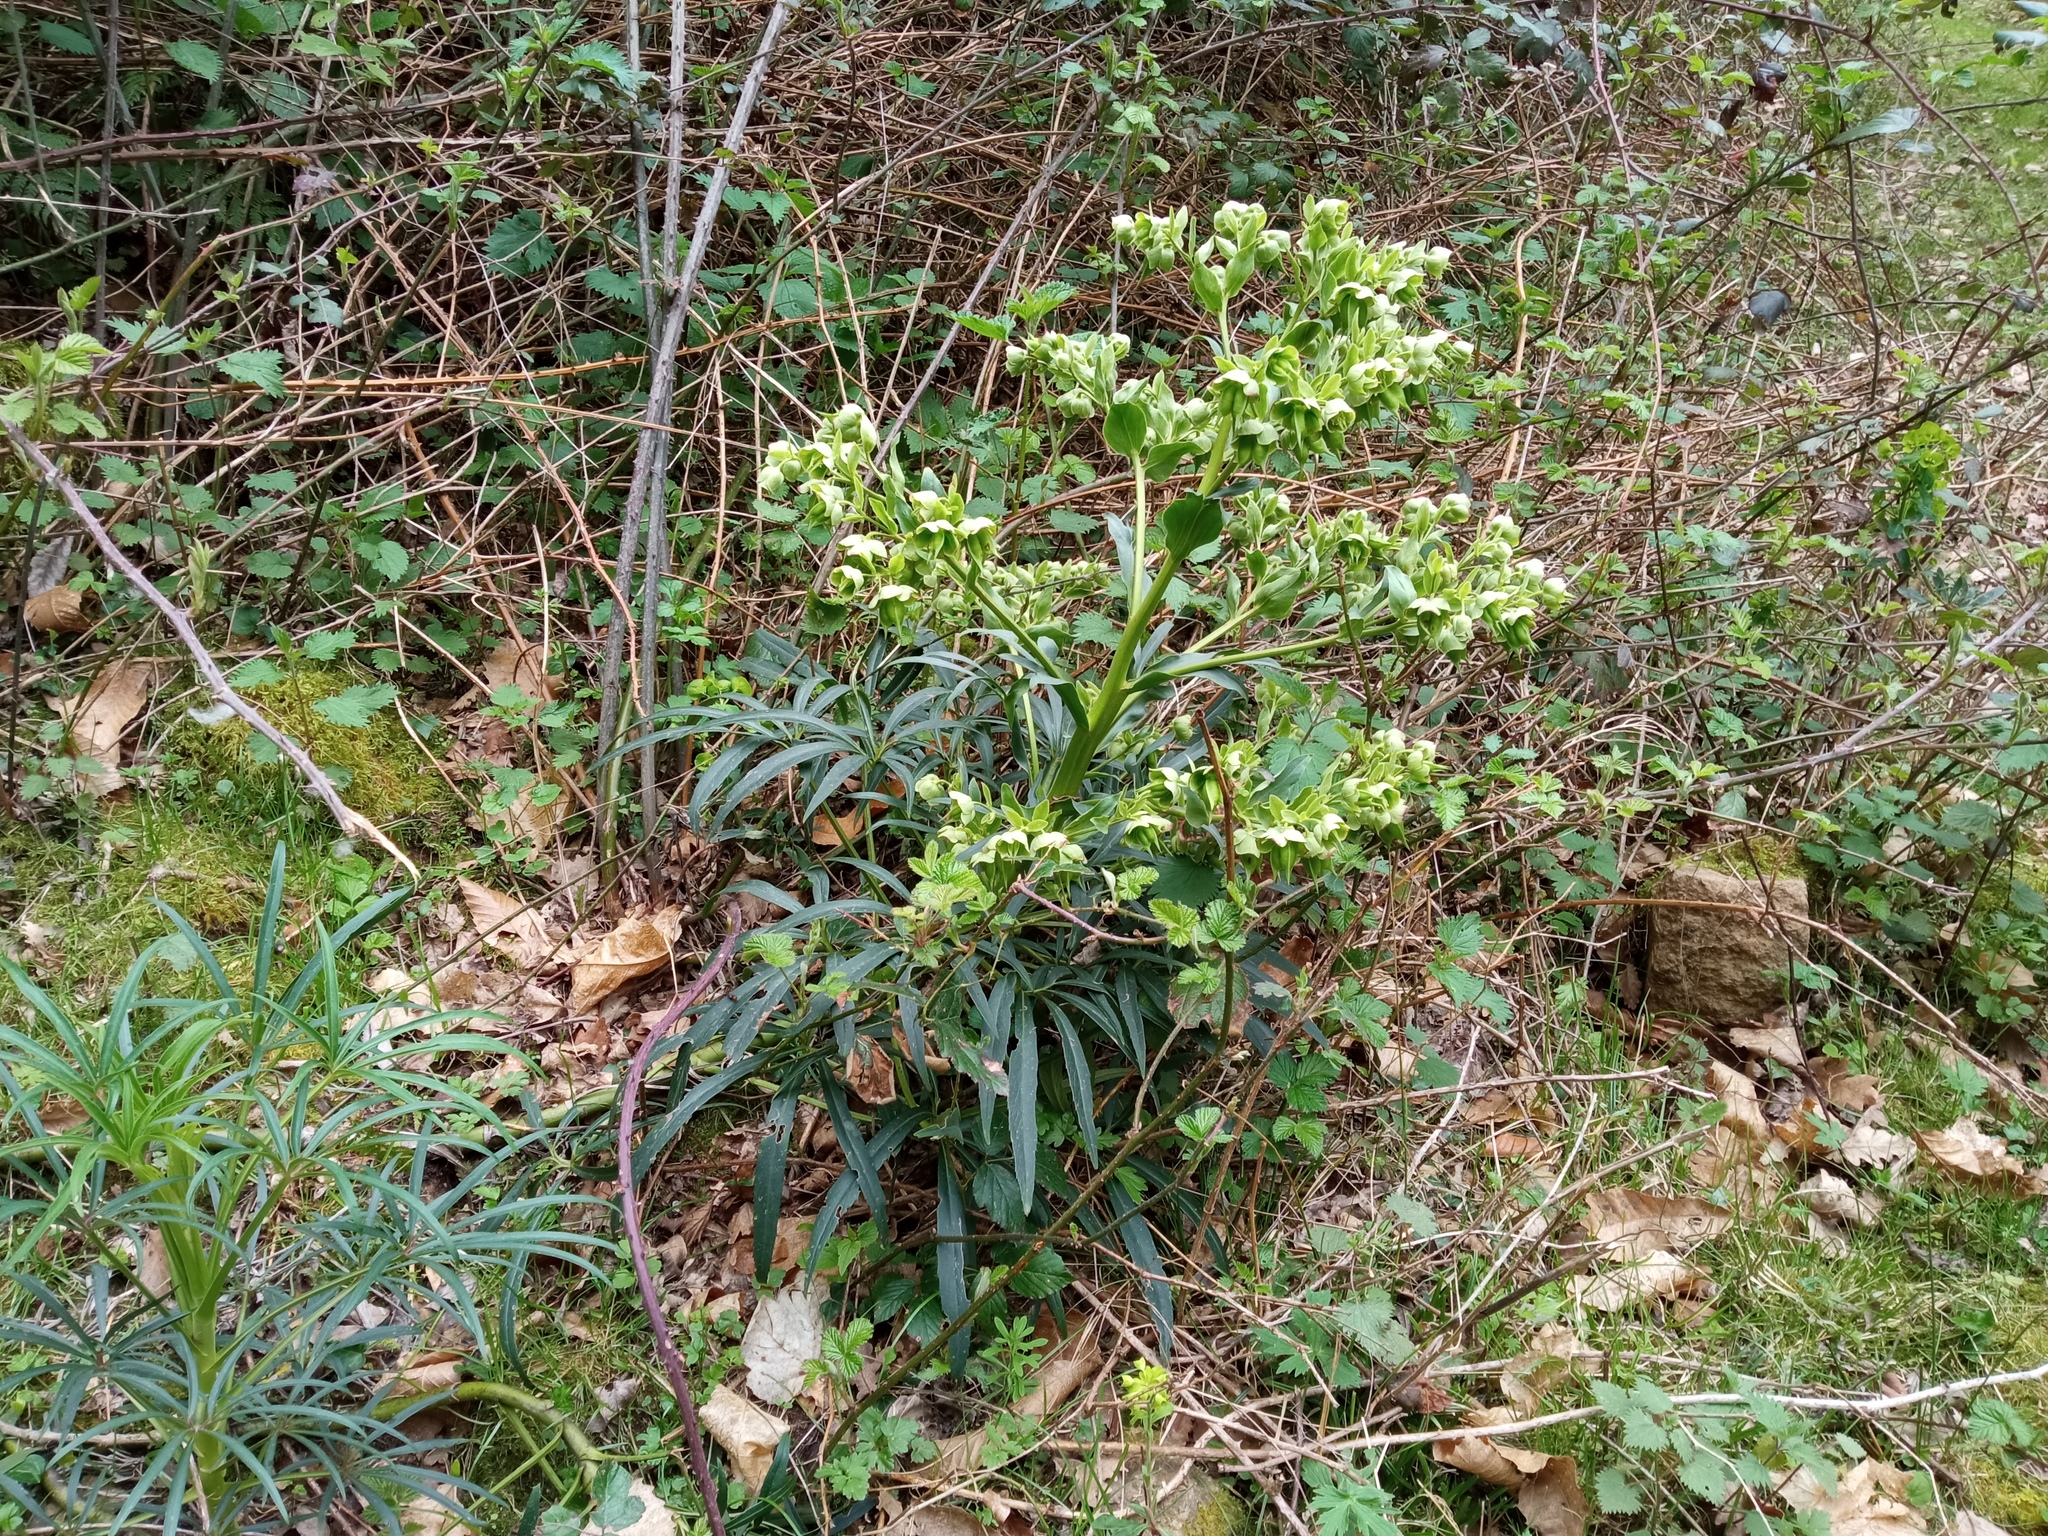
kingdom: Plantae
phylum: Tracheophyta
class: Magnoliopsida
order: Ranunculales
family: Ranunculaceae
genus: Helleborus
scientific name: Helleborus foetidus
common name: Stinking hellebore
